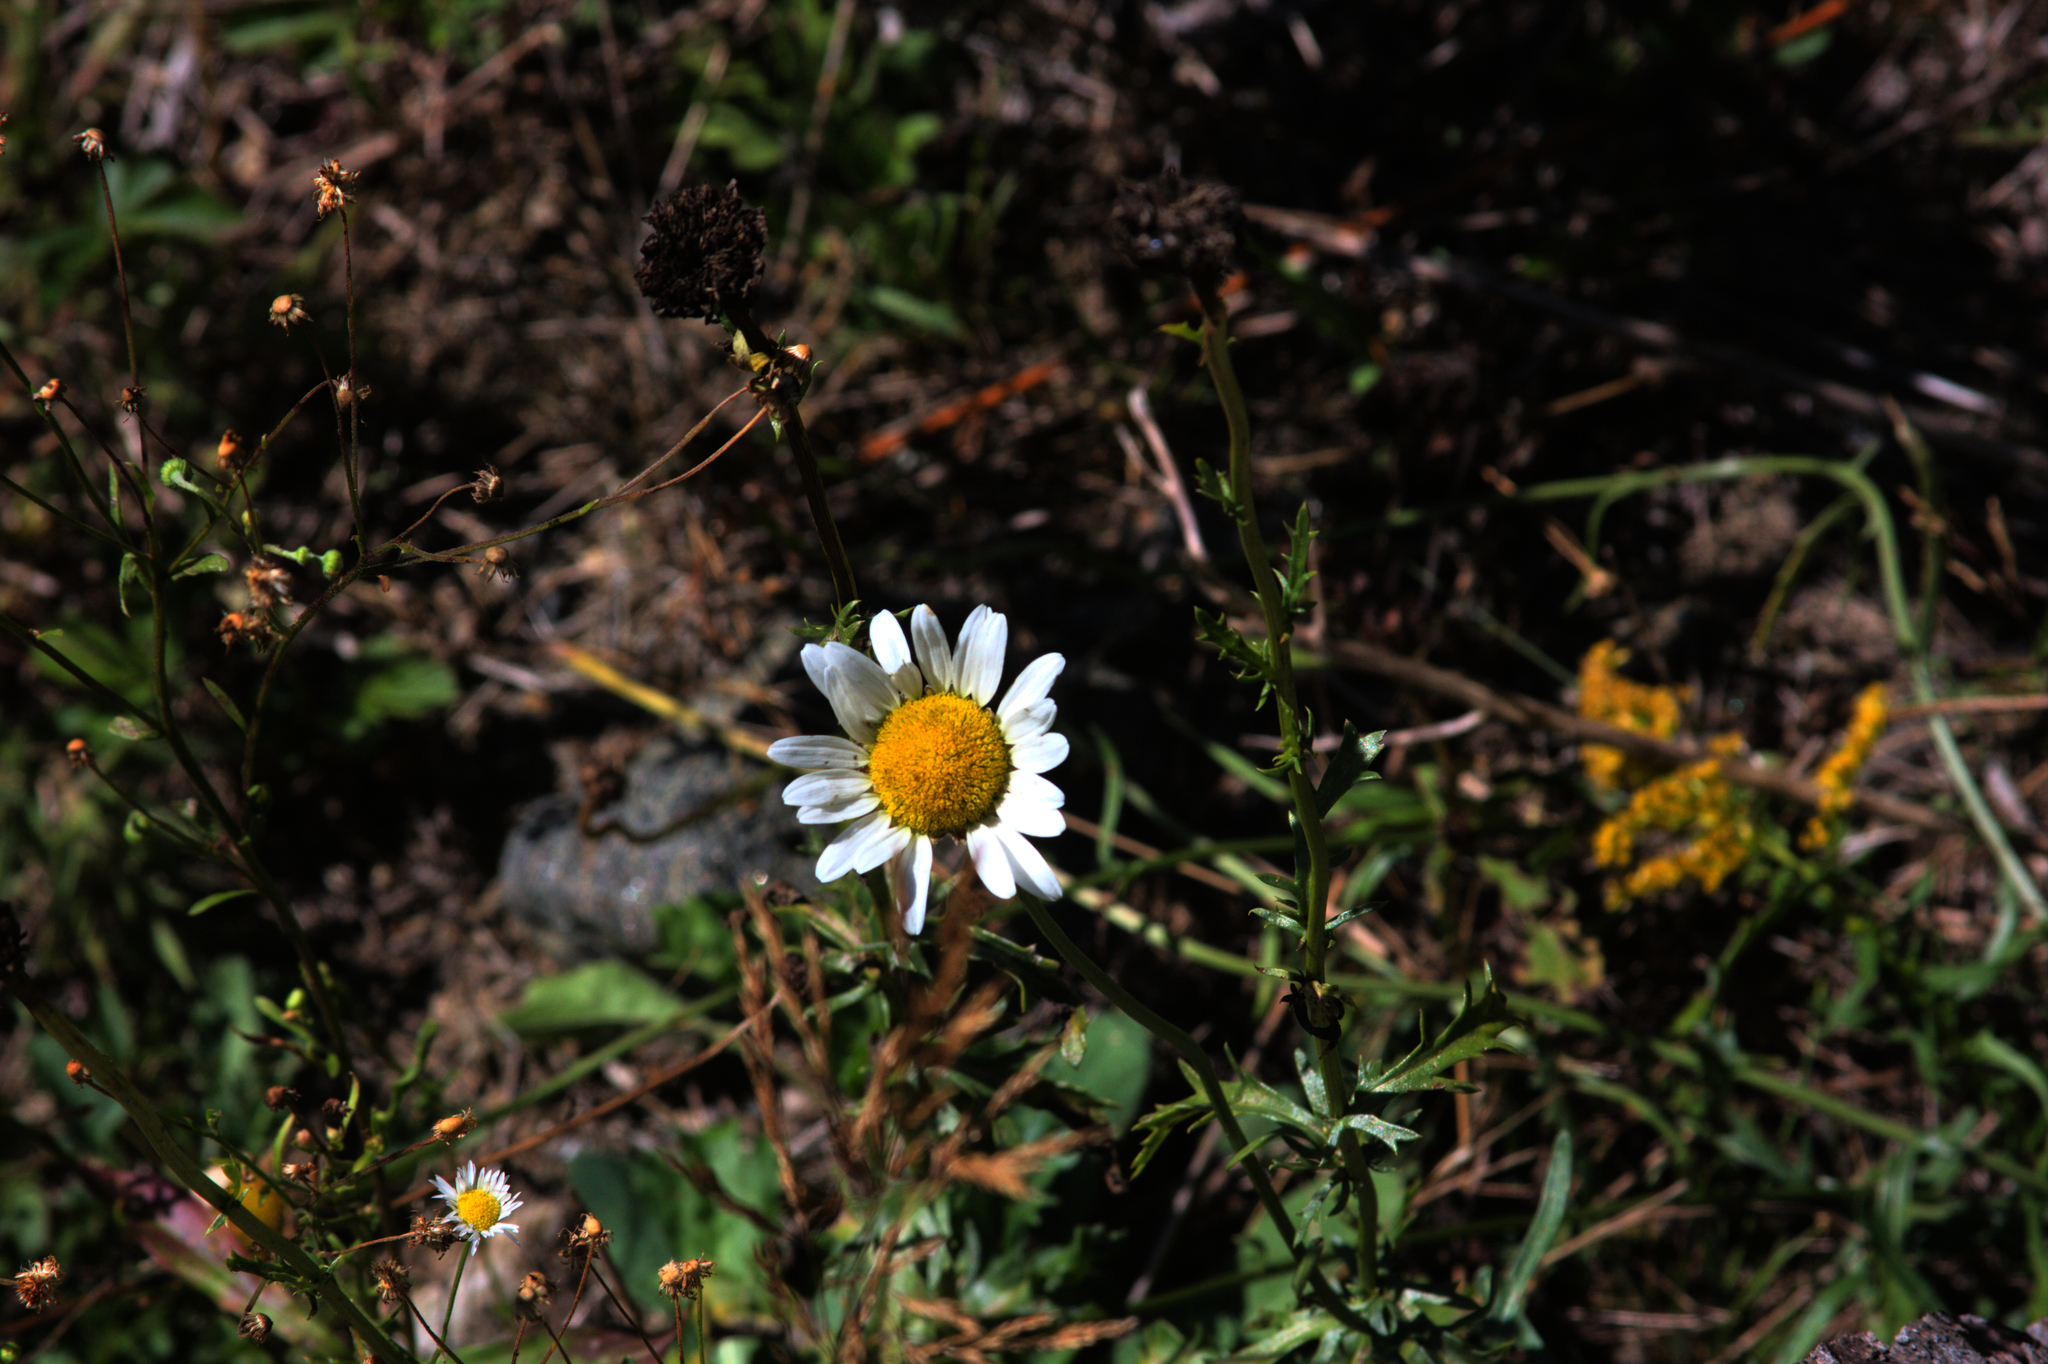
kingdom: Plantae
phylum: Tracheophyta
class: Magnoliopsida
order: Asterales
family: Asteraceae
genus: Leucanthemum
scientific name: Leucanthemum vulgare
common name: Oxeye daisy
